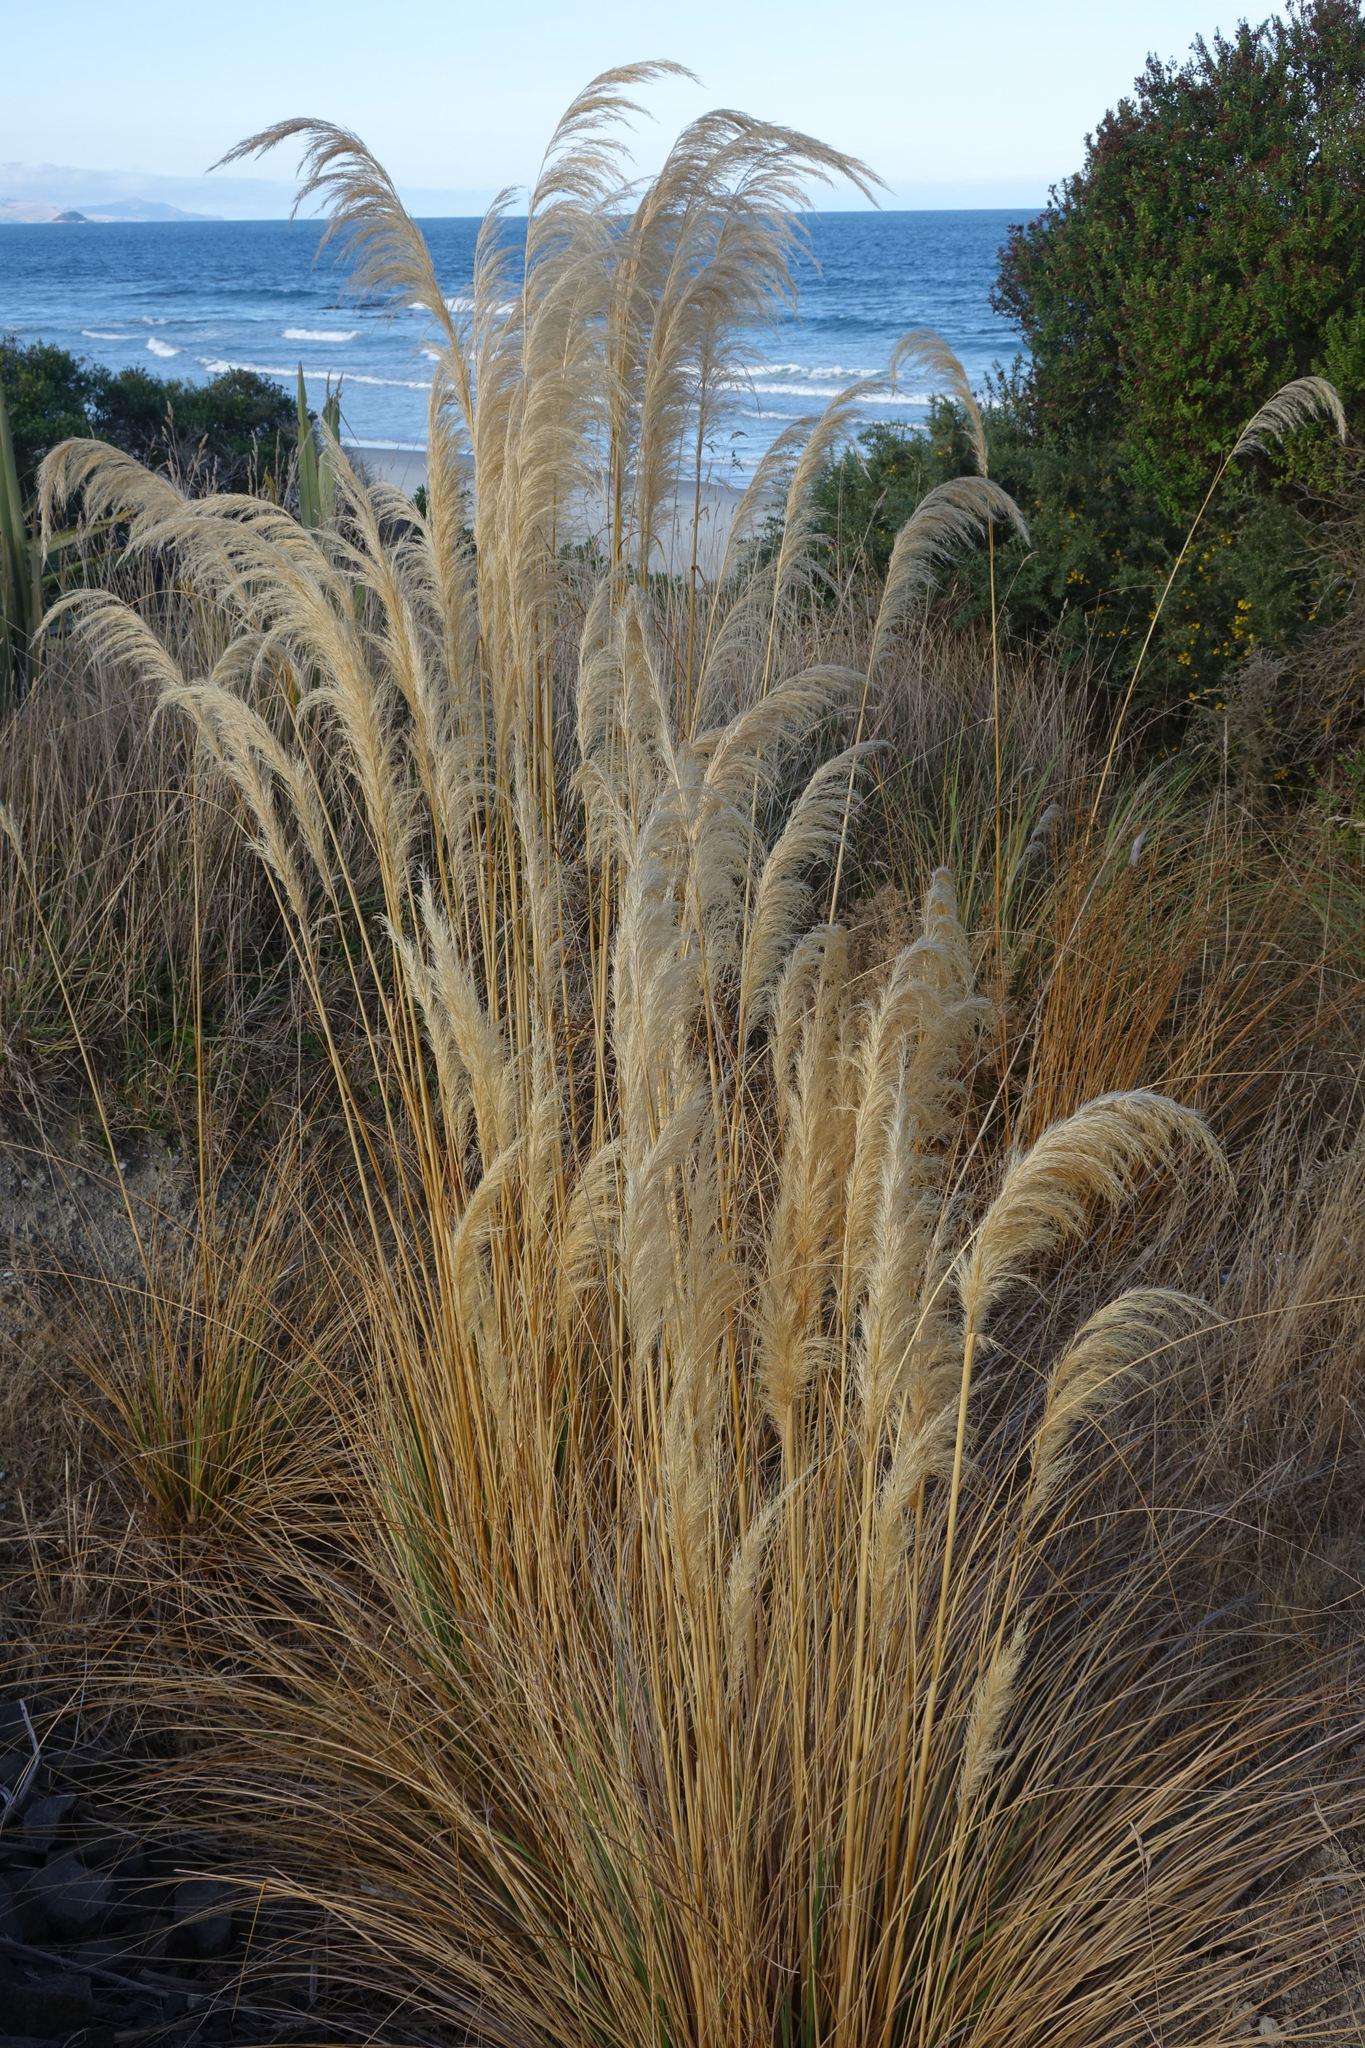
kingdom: Plantae
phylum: Tracheophyta
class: Liliopsida
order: Poales
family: Poaceae
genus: Austroderia
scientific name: Austroderia richardii
